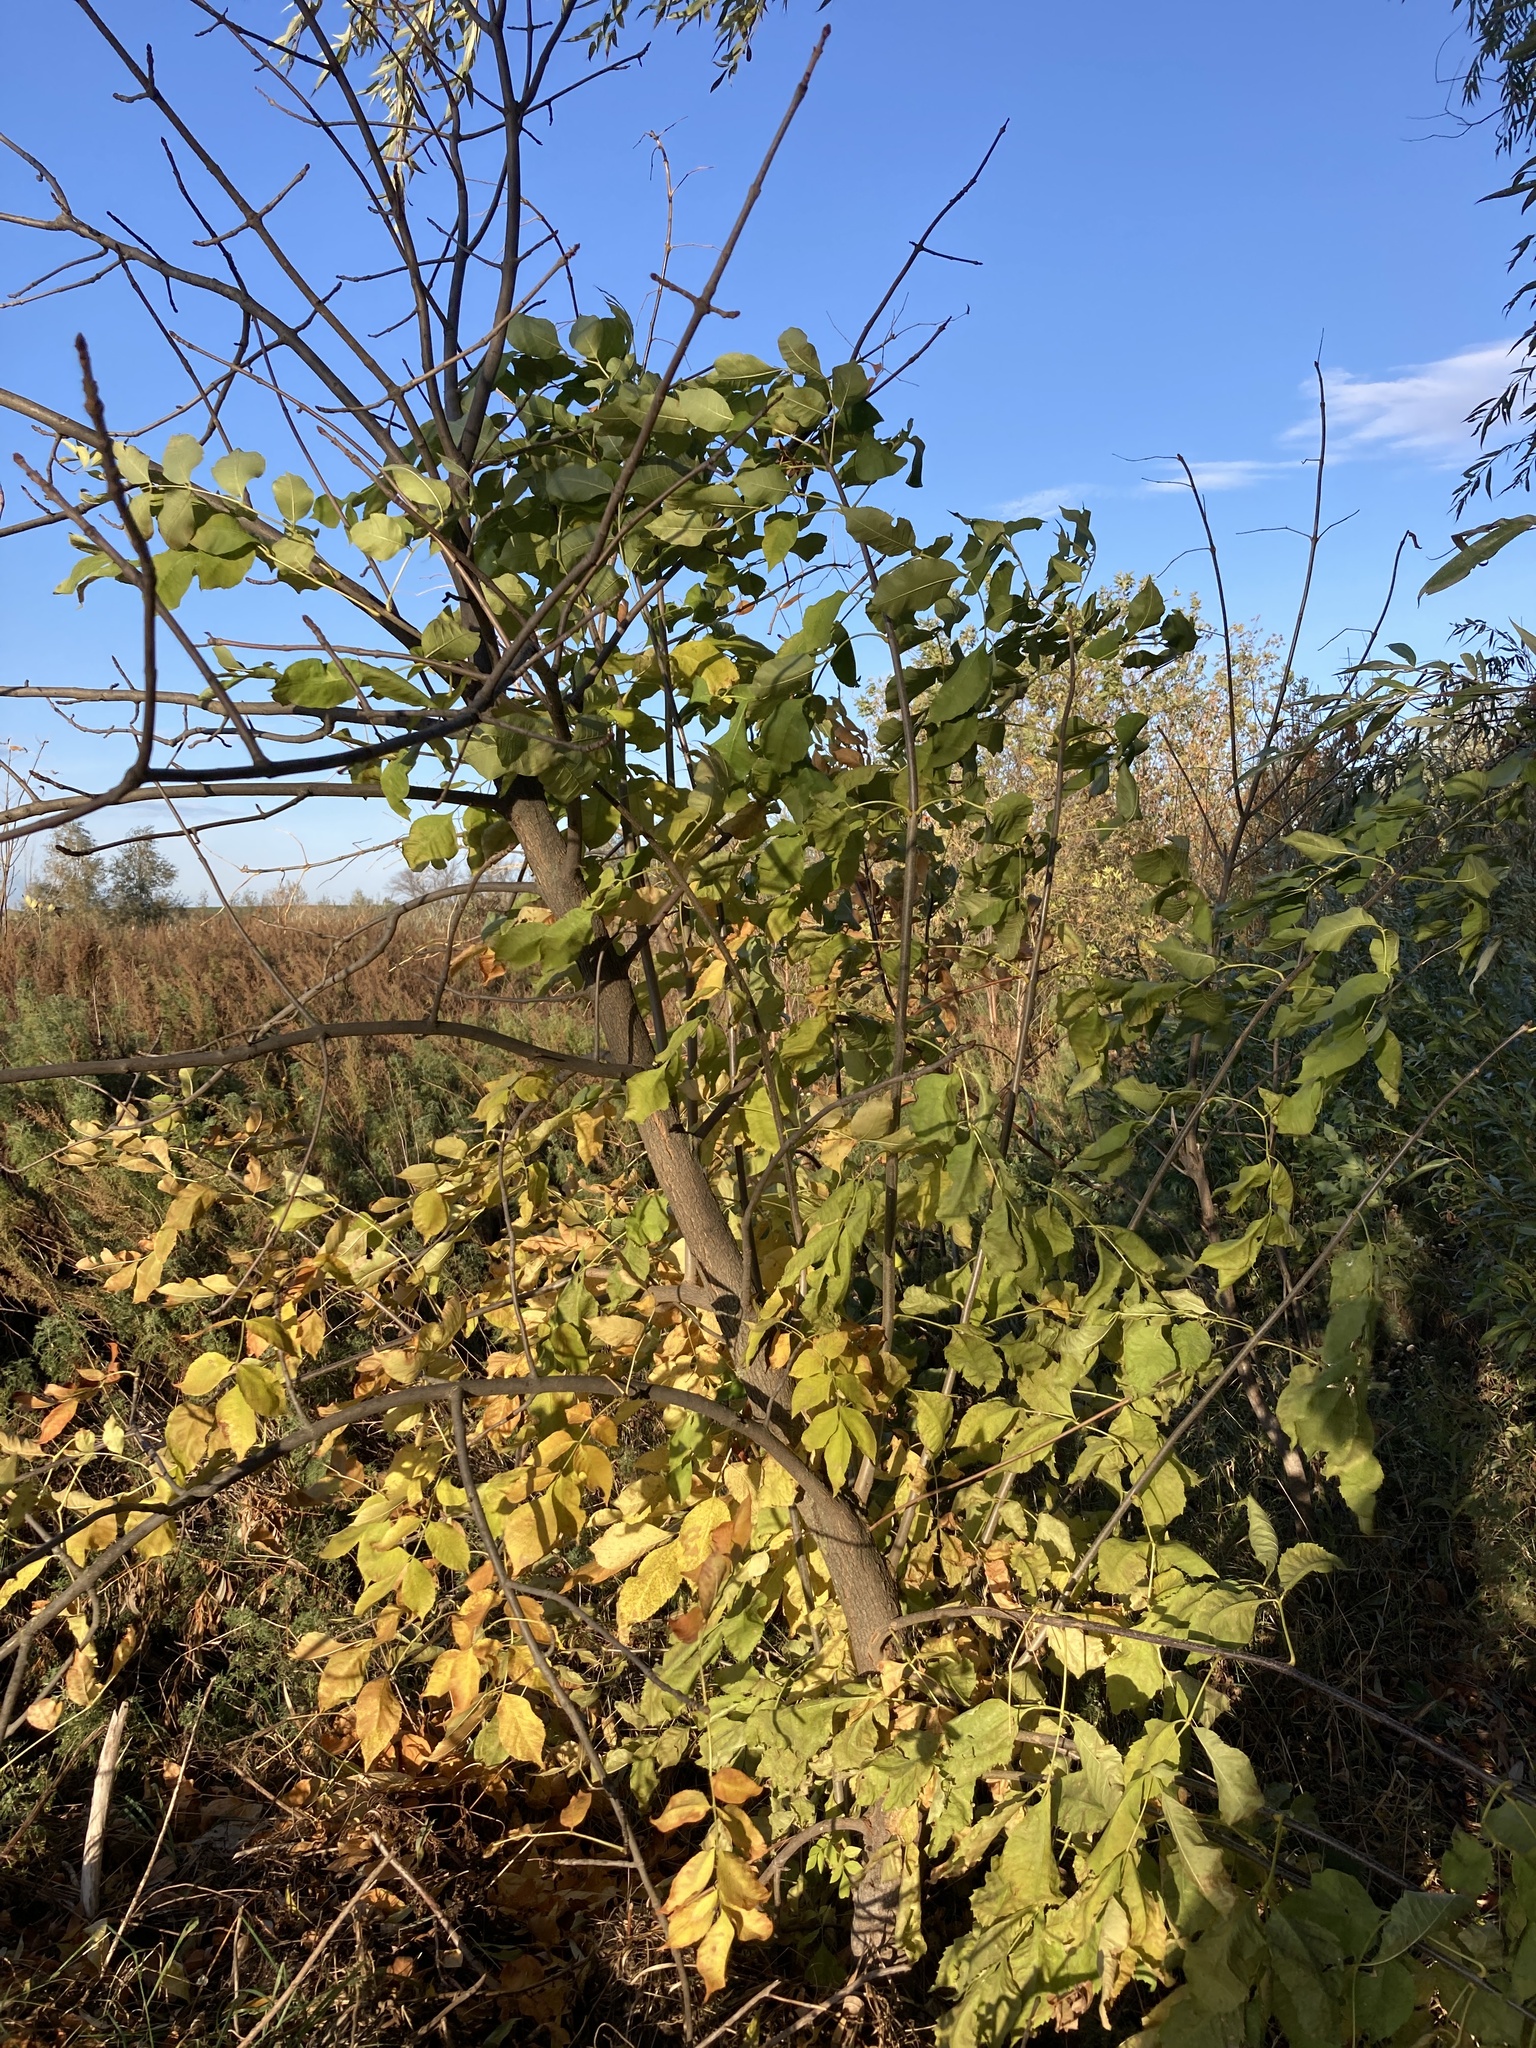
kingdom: Plantae
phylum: Tracheophyta
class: Magnoliopsida
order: Lamiales
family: Oleaceae
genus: Fraxinus
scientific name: Fraxinus pennsylvanica
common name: Green ash
